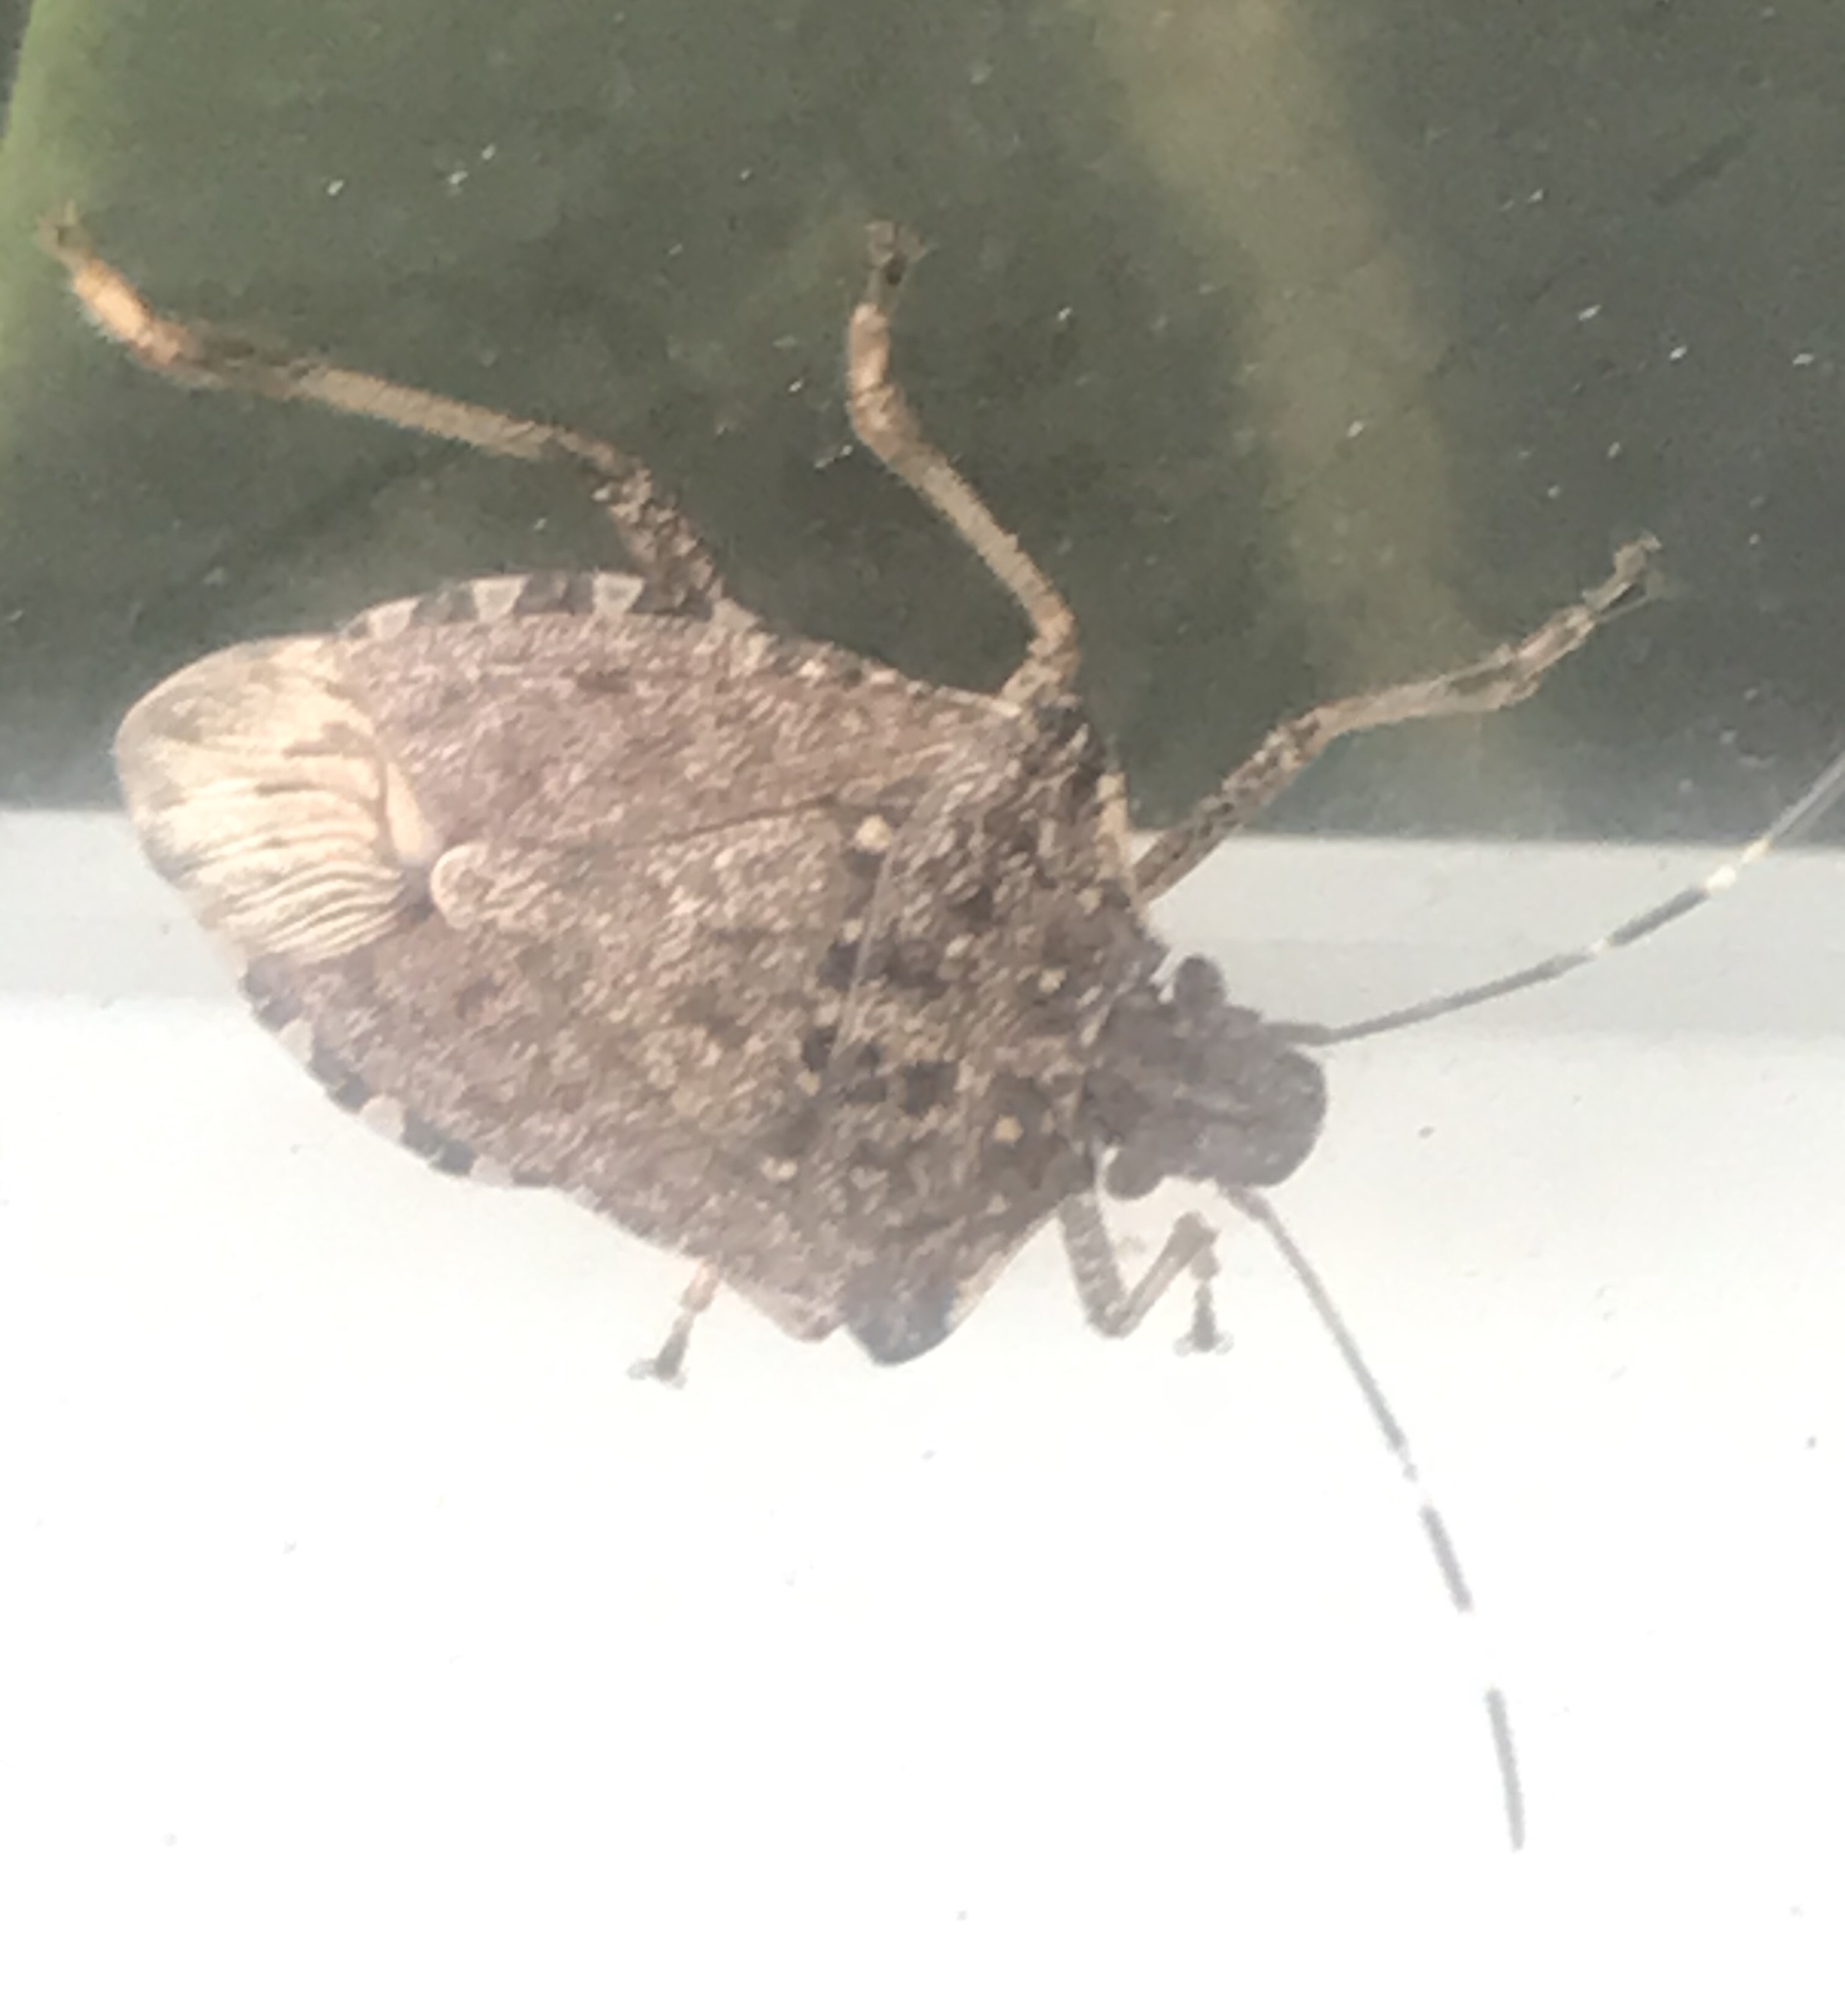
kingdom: Animalia
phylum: Arthropoda
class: Insecta
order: Hemiptera
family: Pentatomidae
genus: Halyomorpha
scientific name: Halyomorpha halys
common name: Brown marmorated stink bug
